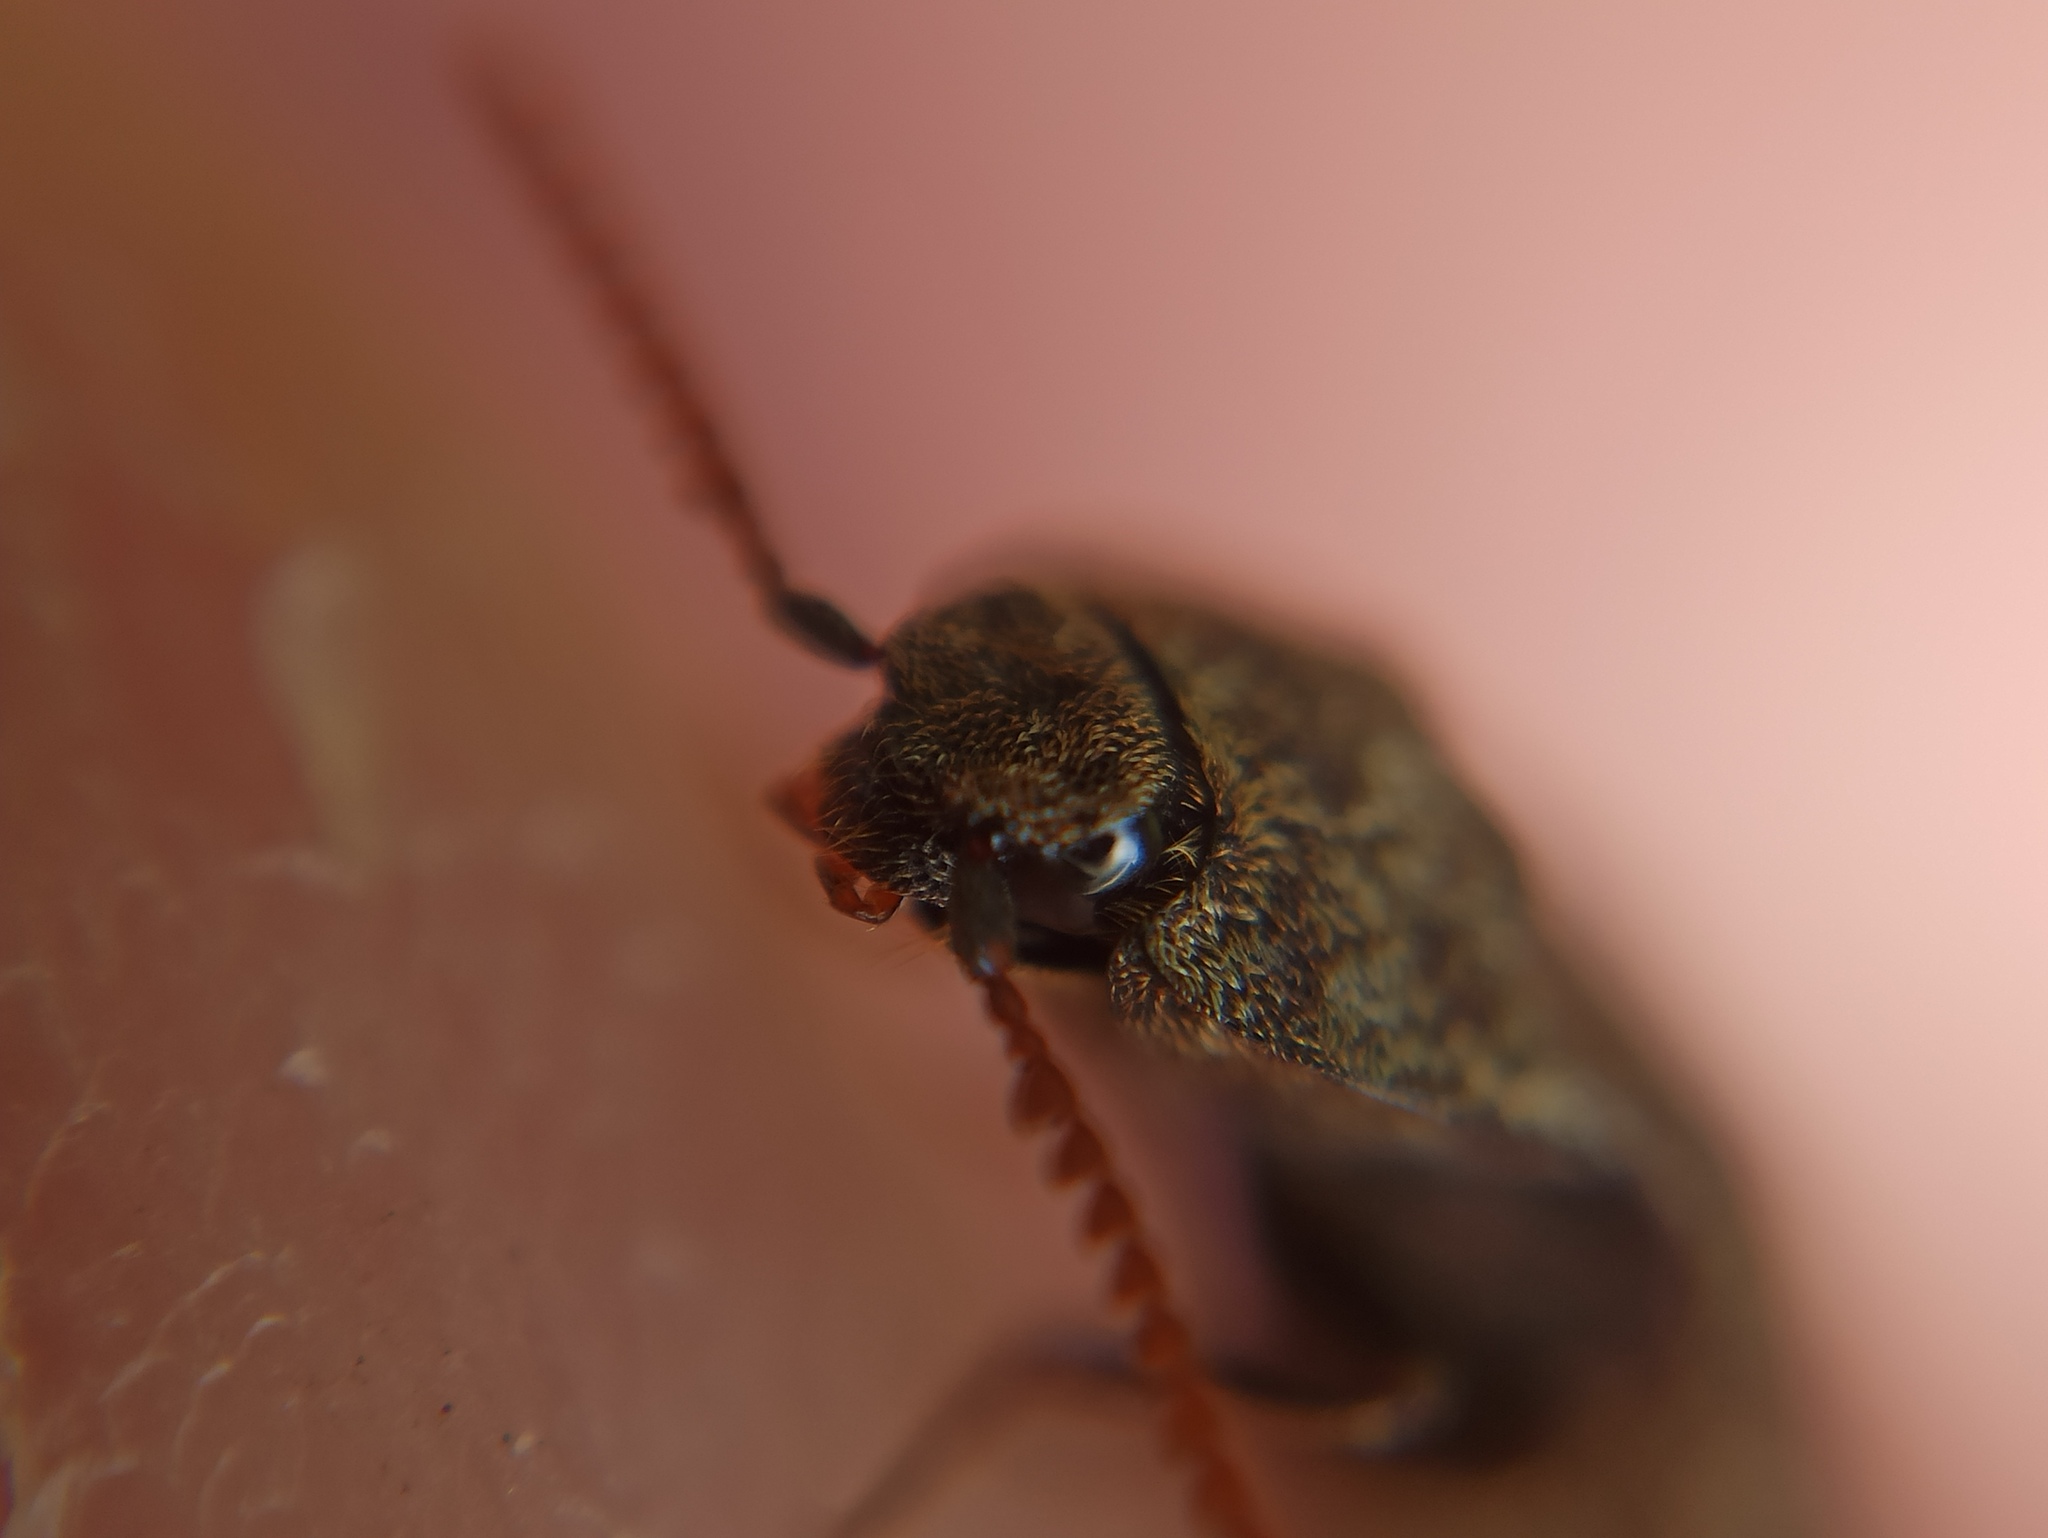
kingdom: Animalia
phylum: Arthropoda
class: Insecta
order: Coleoptera
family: Elateridae
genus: Agrypnus
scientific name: Agrypnus murinus
